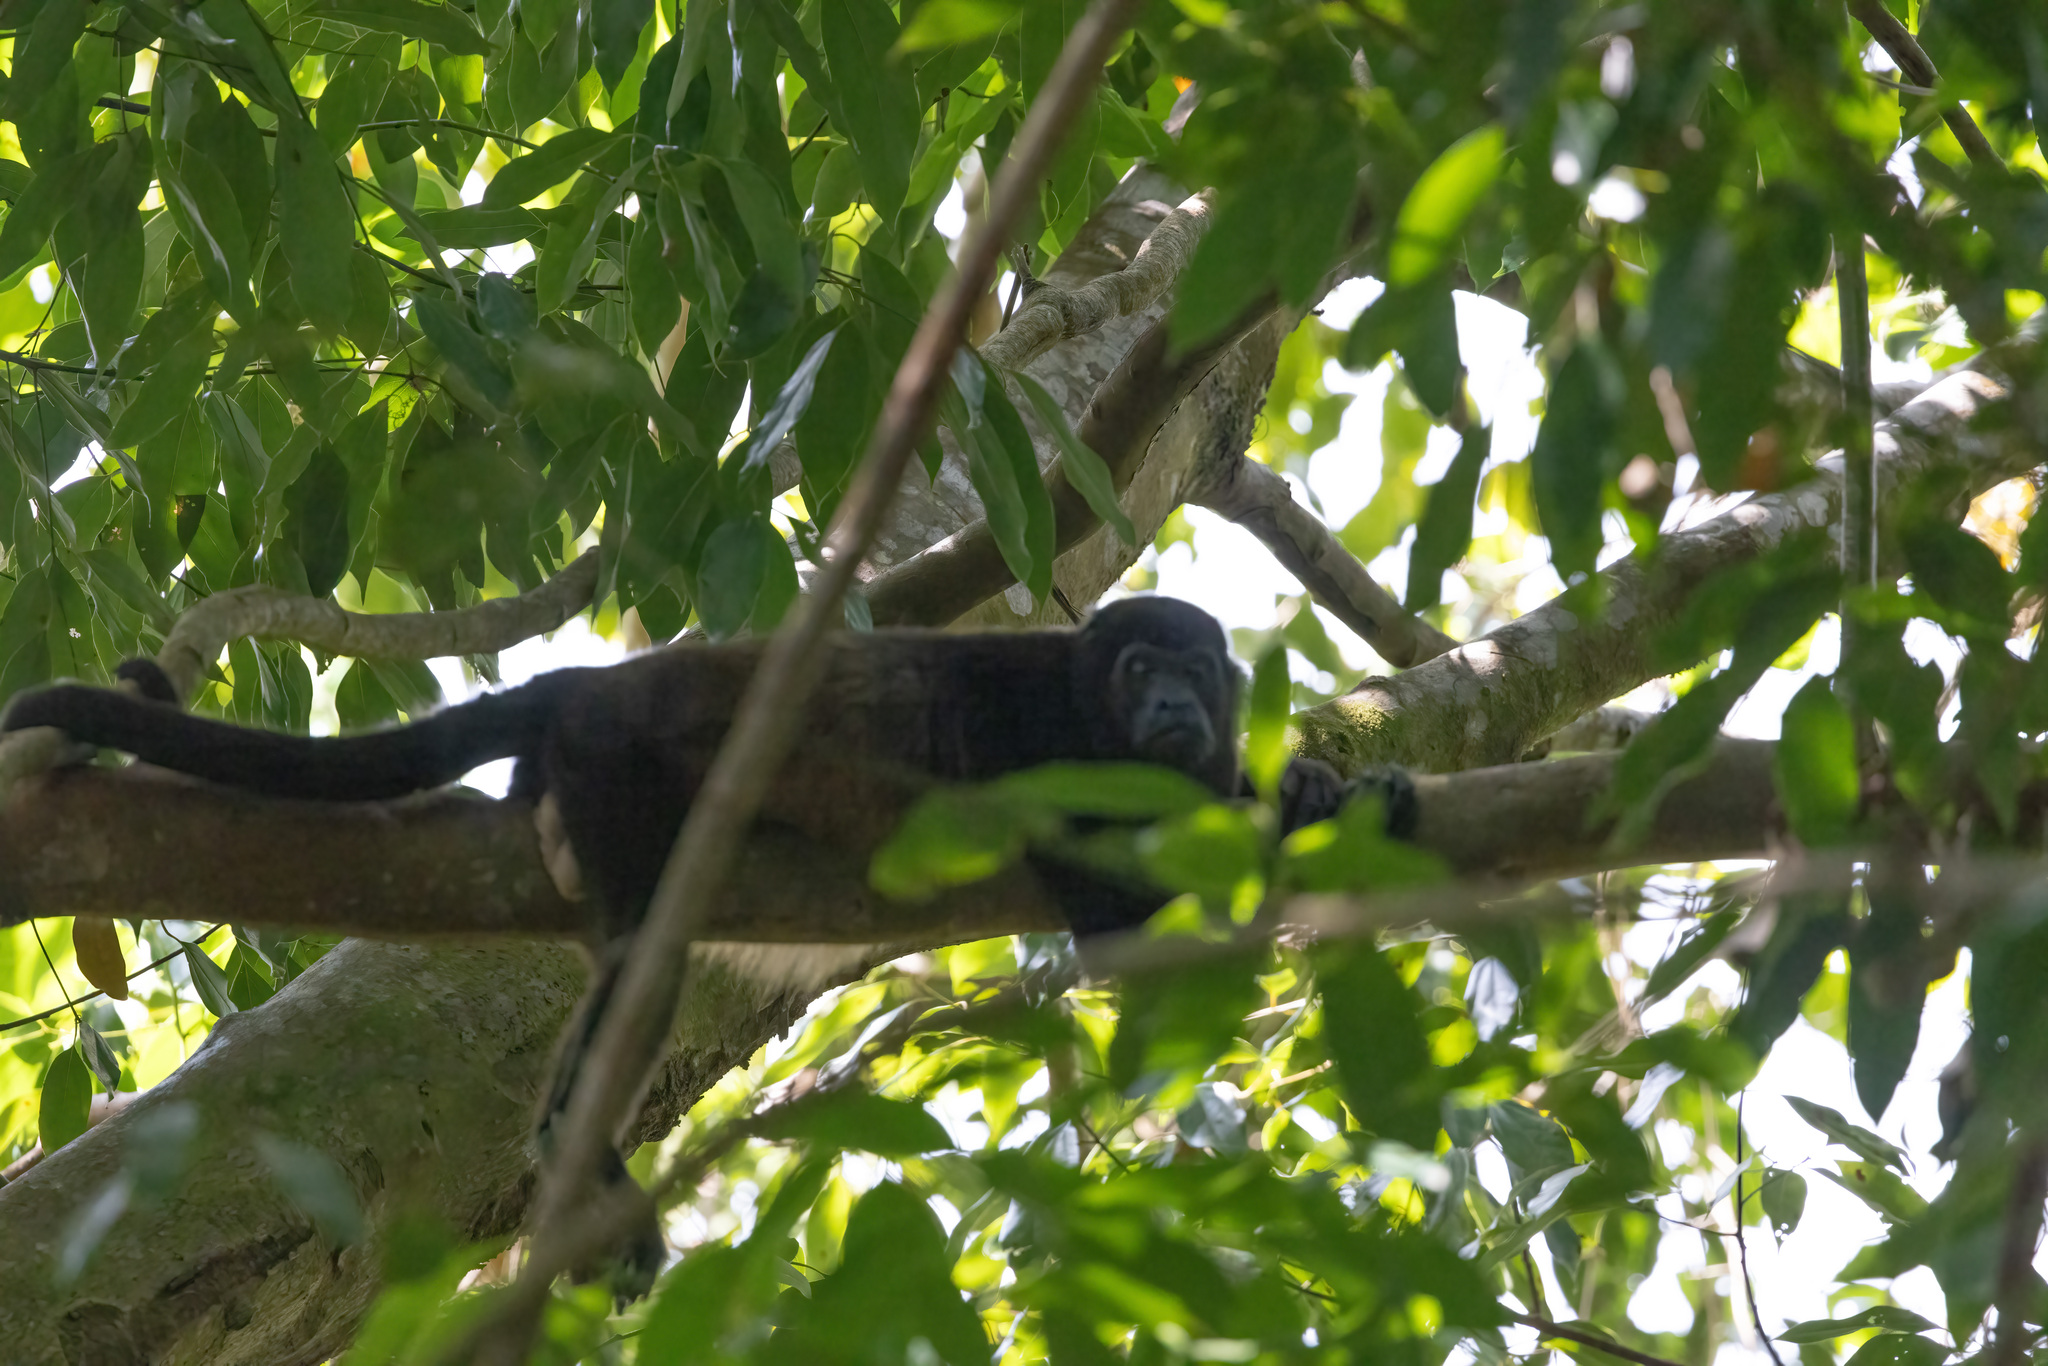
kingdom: Animalia
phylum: Chordata
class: Mammalia
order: Primates
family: Atelidae
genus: Alouatta
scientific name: Alouatta palliata
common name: Mantled howler
